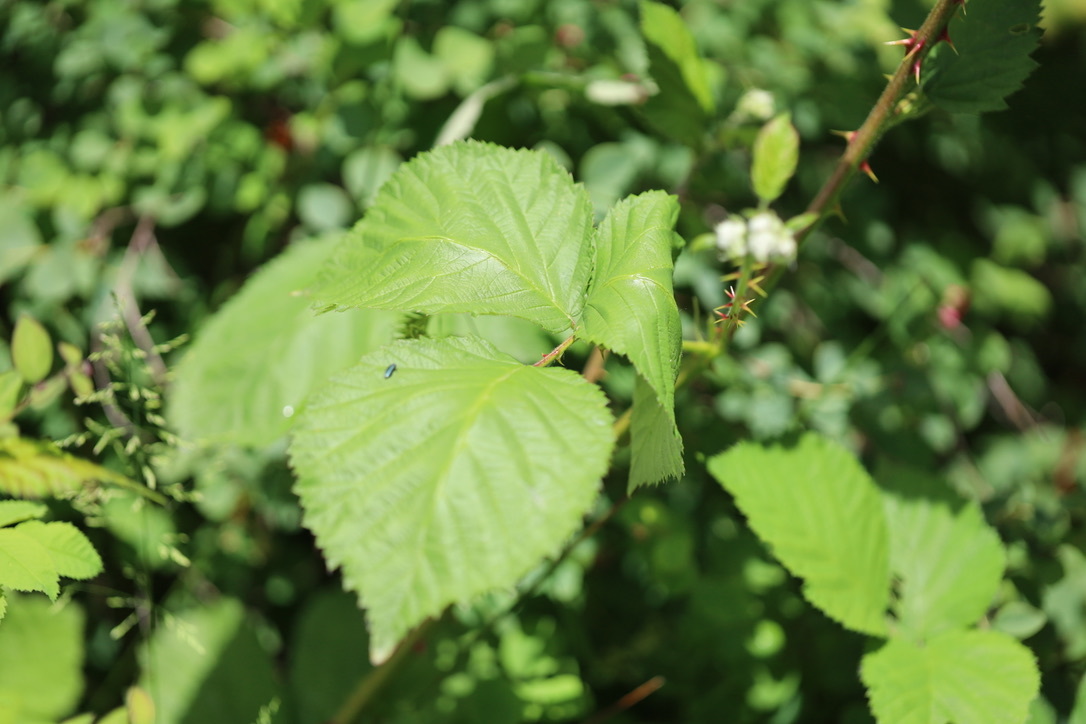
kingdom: Plantae
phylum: Tracheophyta
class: Magnoliopsida
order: Rosales
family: Rosaceae
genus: Rubus
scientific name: Rubus bifrons
